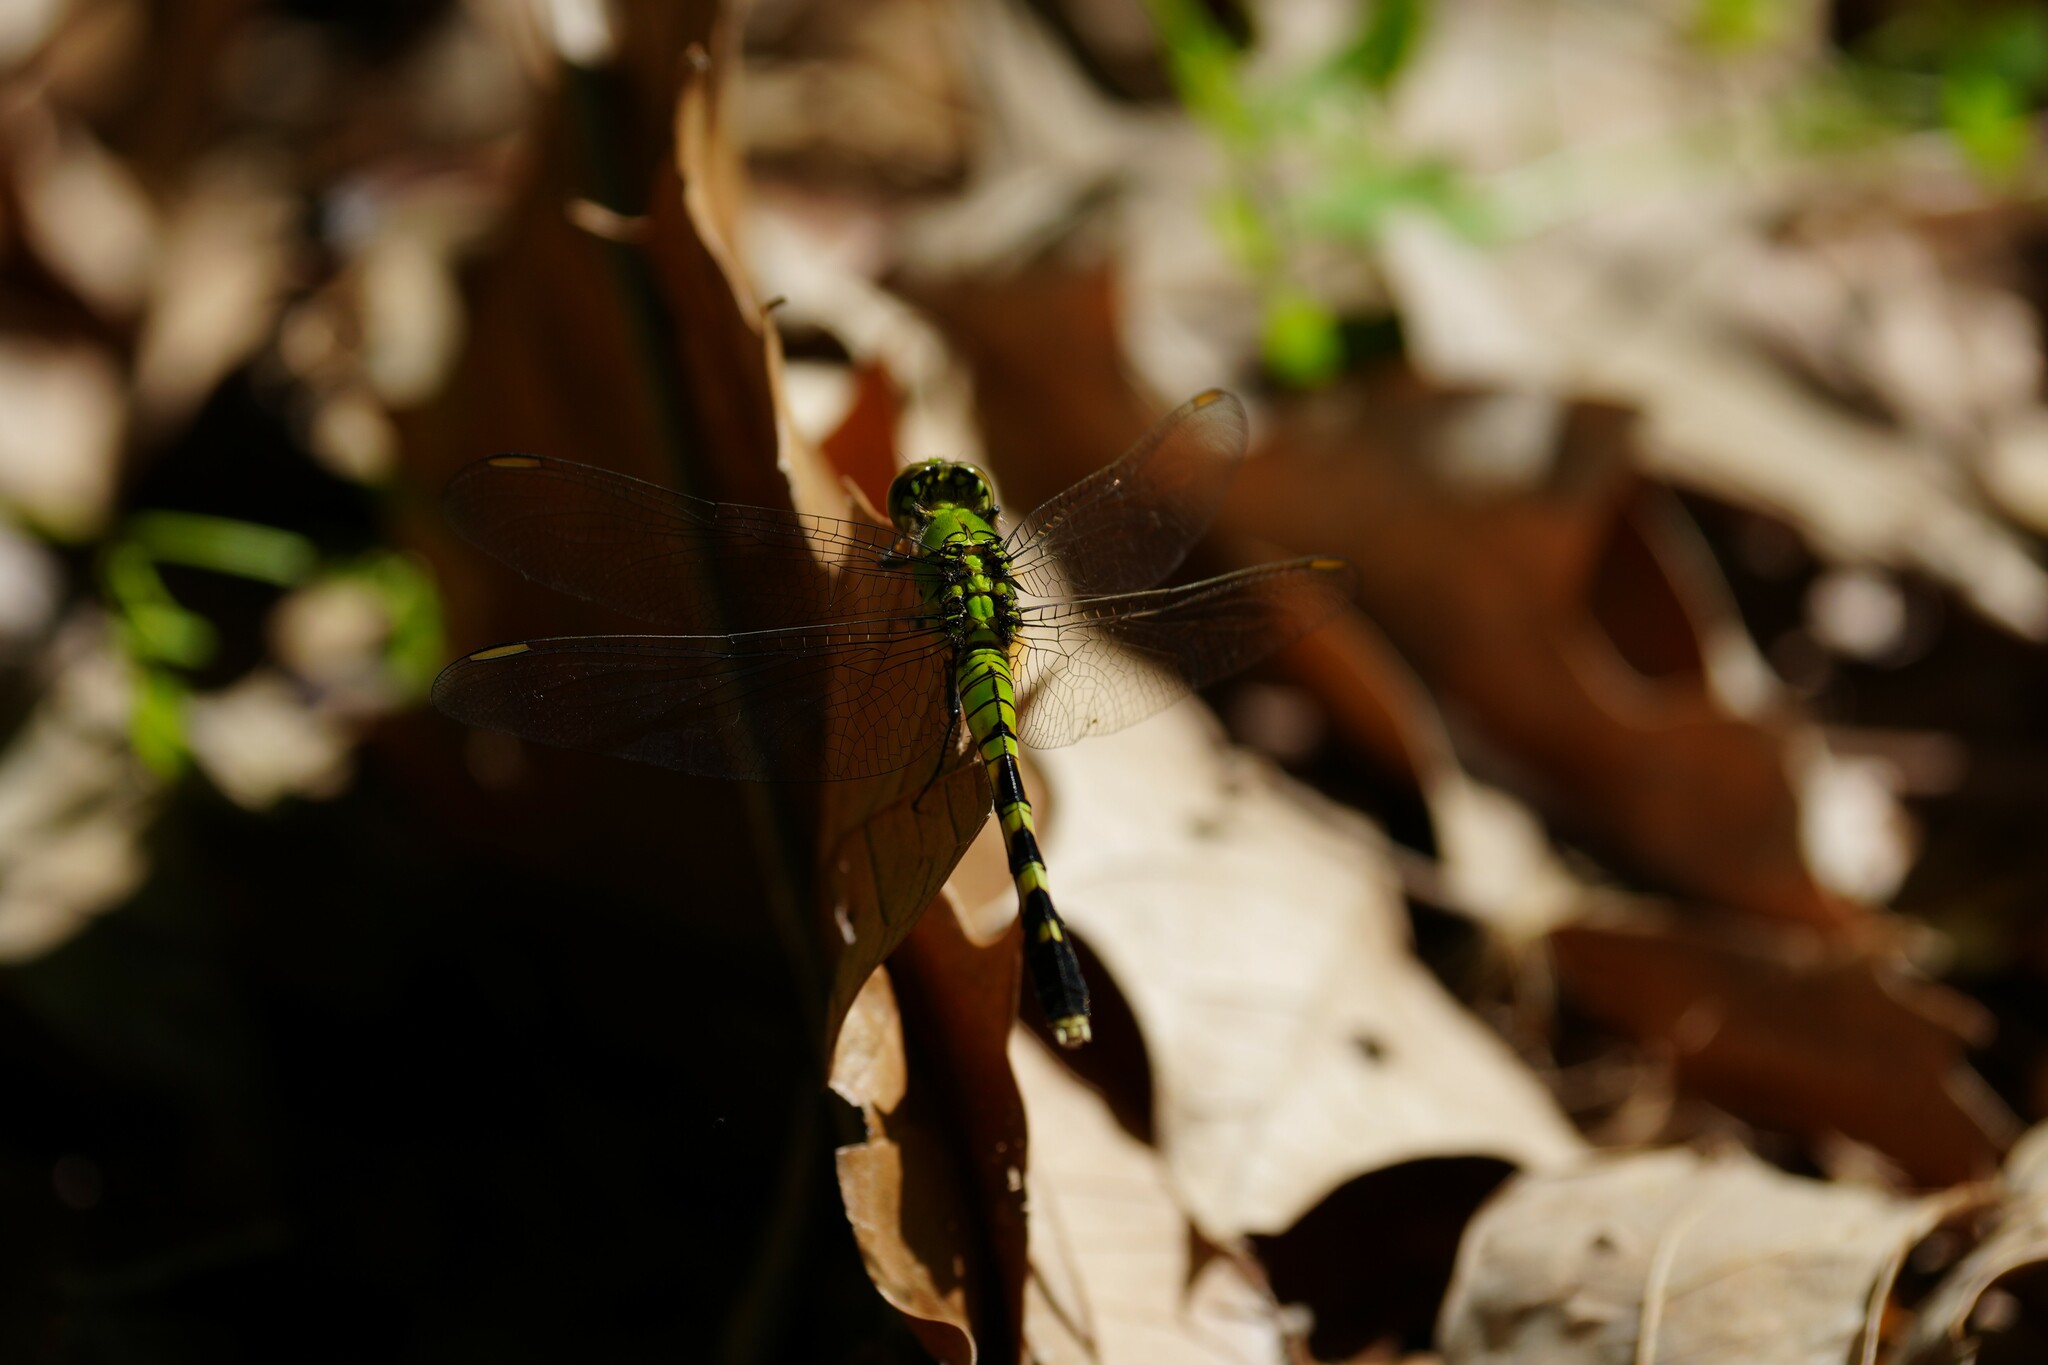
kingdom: Animalia
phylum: Arthropoda
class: Insecta
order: Odonata
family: Libellulidae
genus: Erythemis
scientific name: Erythemis simplicicollis
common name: Eastern pondhawk
